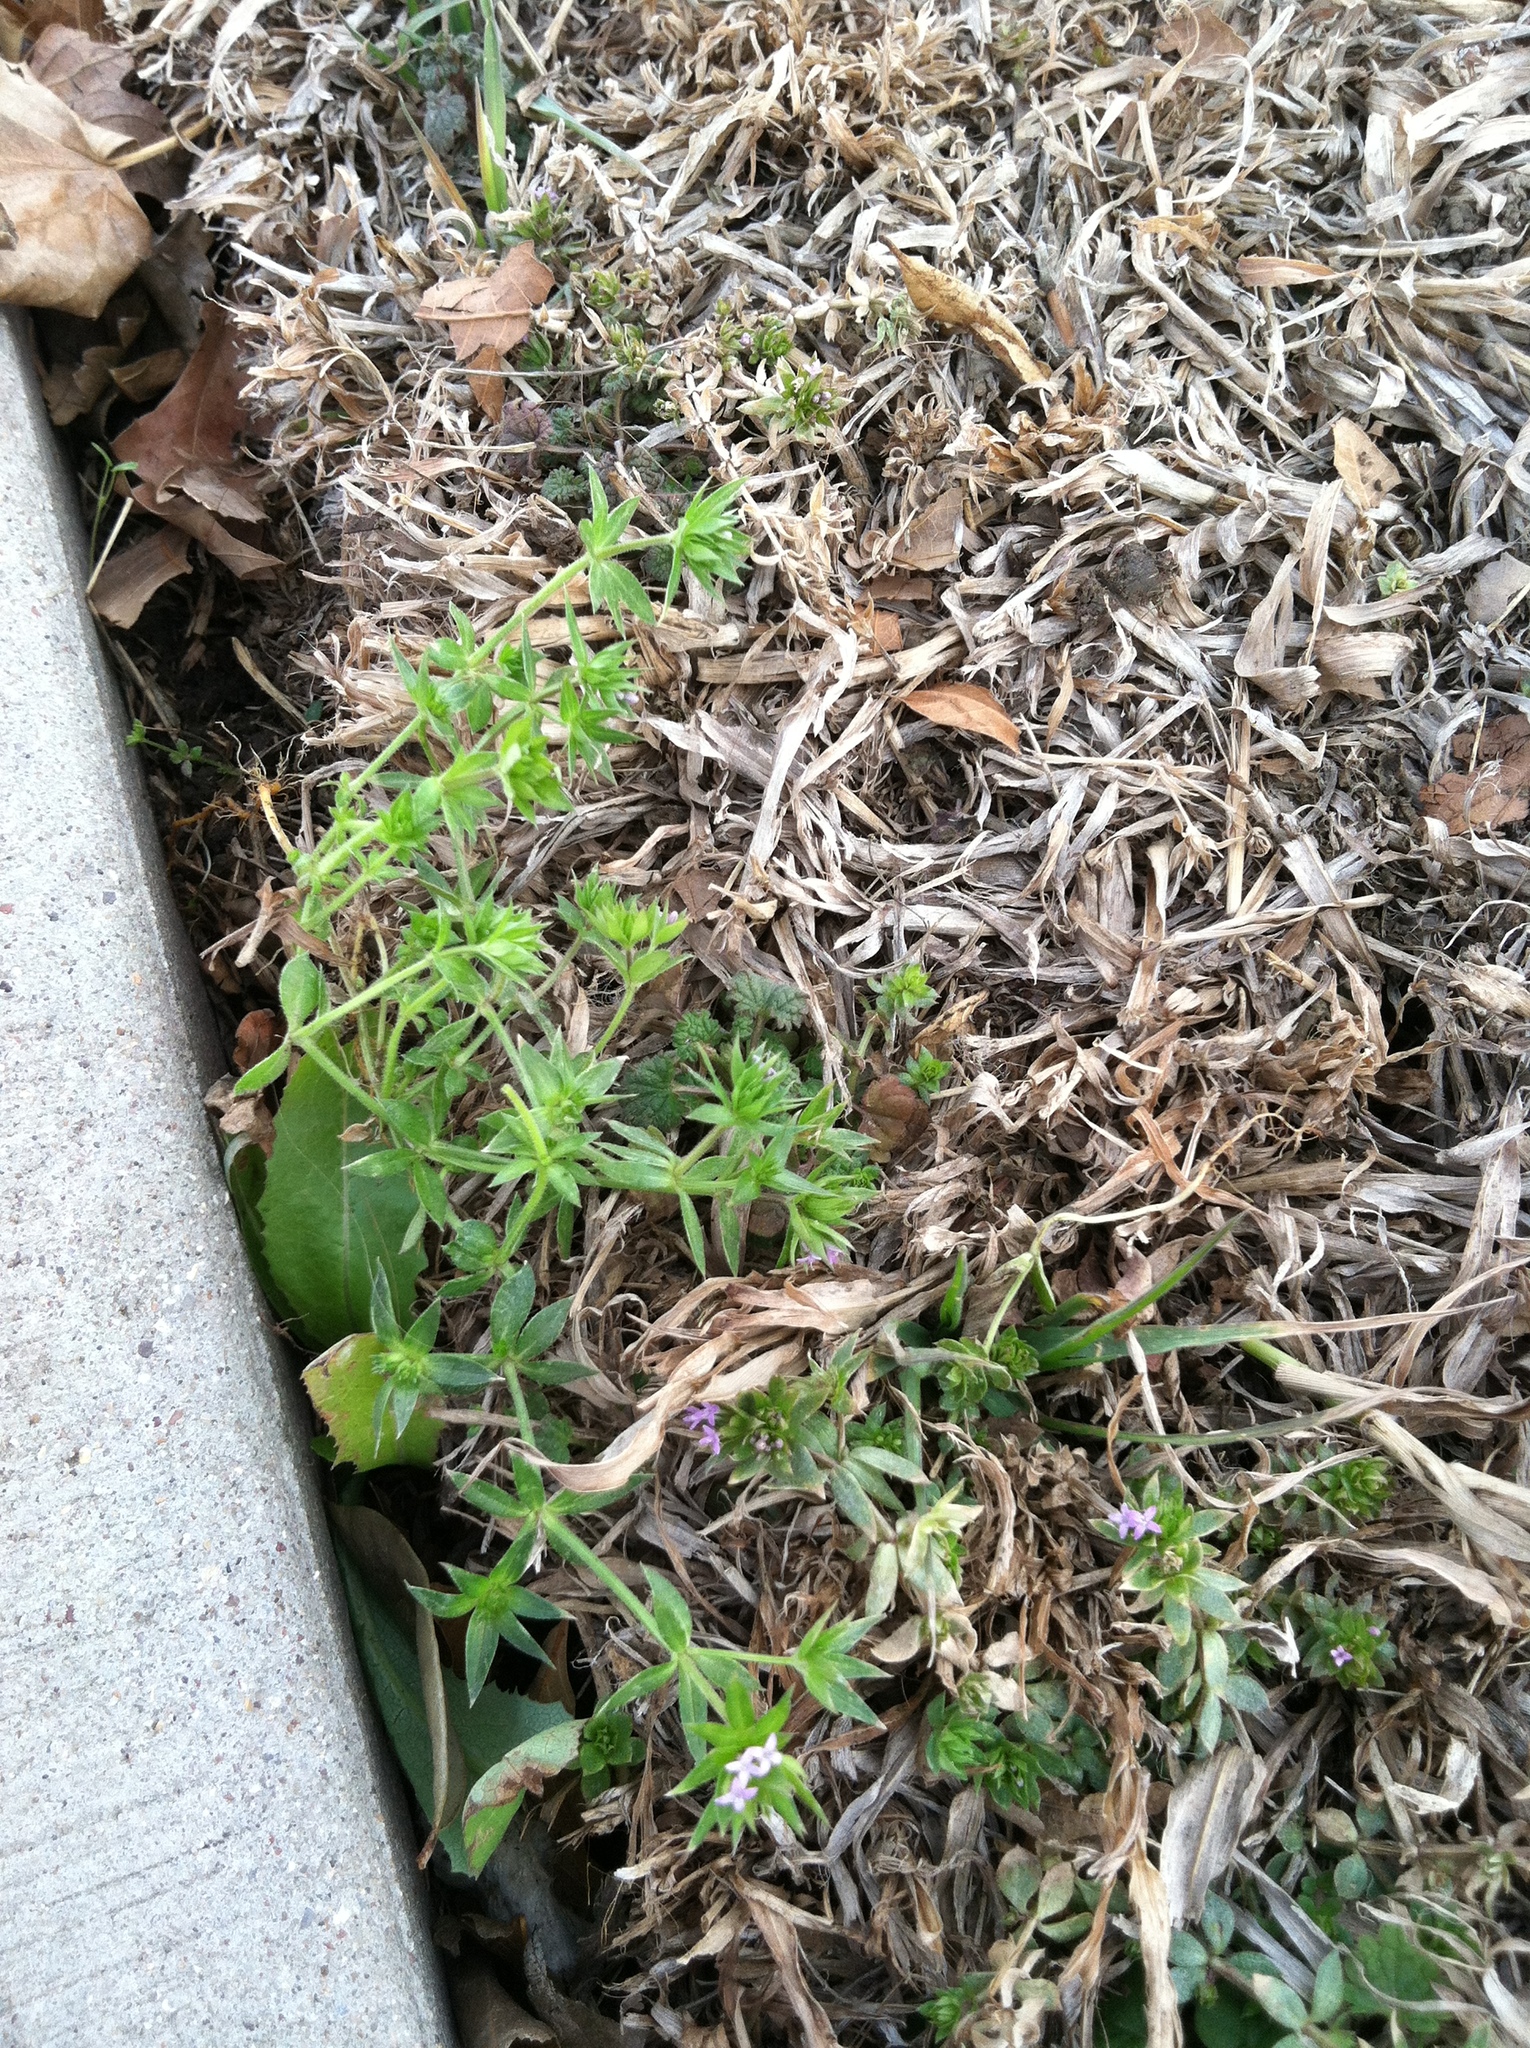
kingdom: Plantae
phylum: Tracheophyta
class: Magnoliopsida
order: Gentianales
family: Rubiaceae
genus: Sherardia
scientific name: Sherardia arvensis
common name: Field madder
